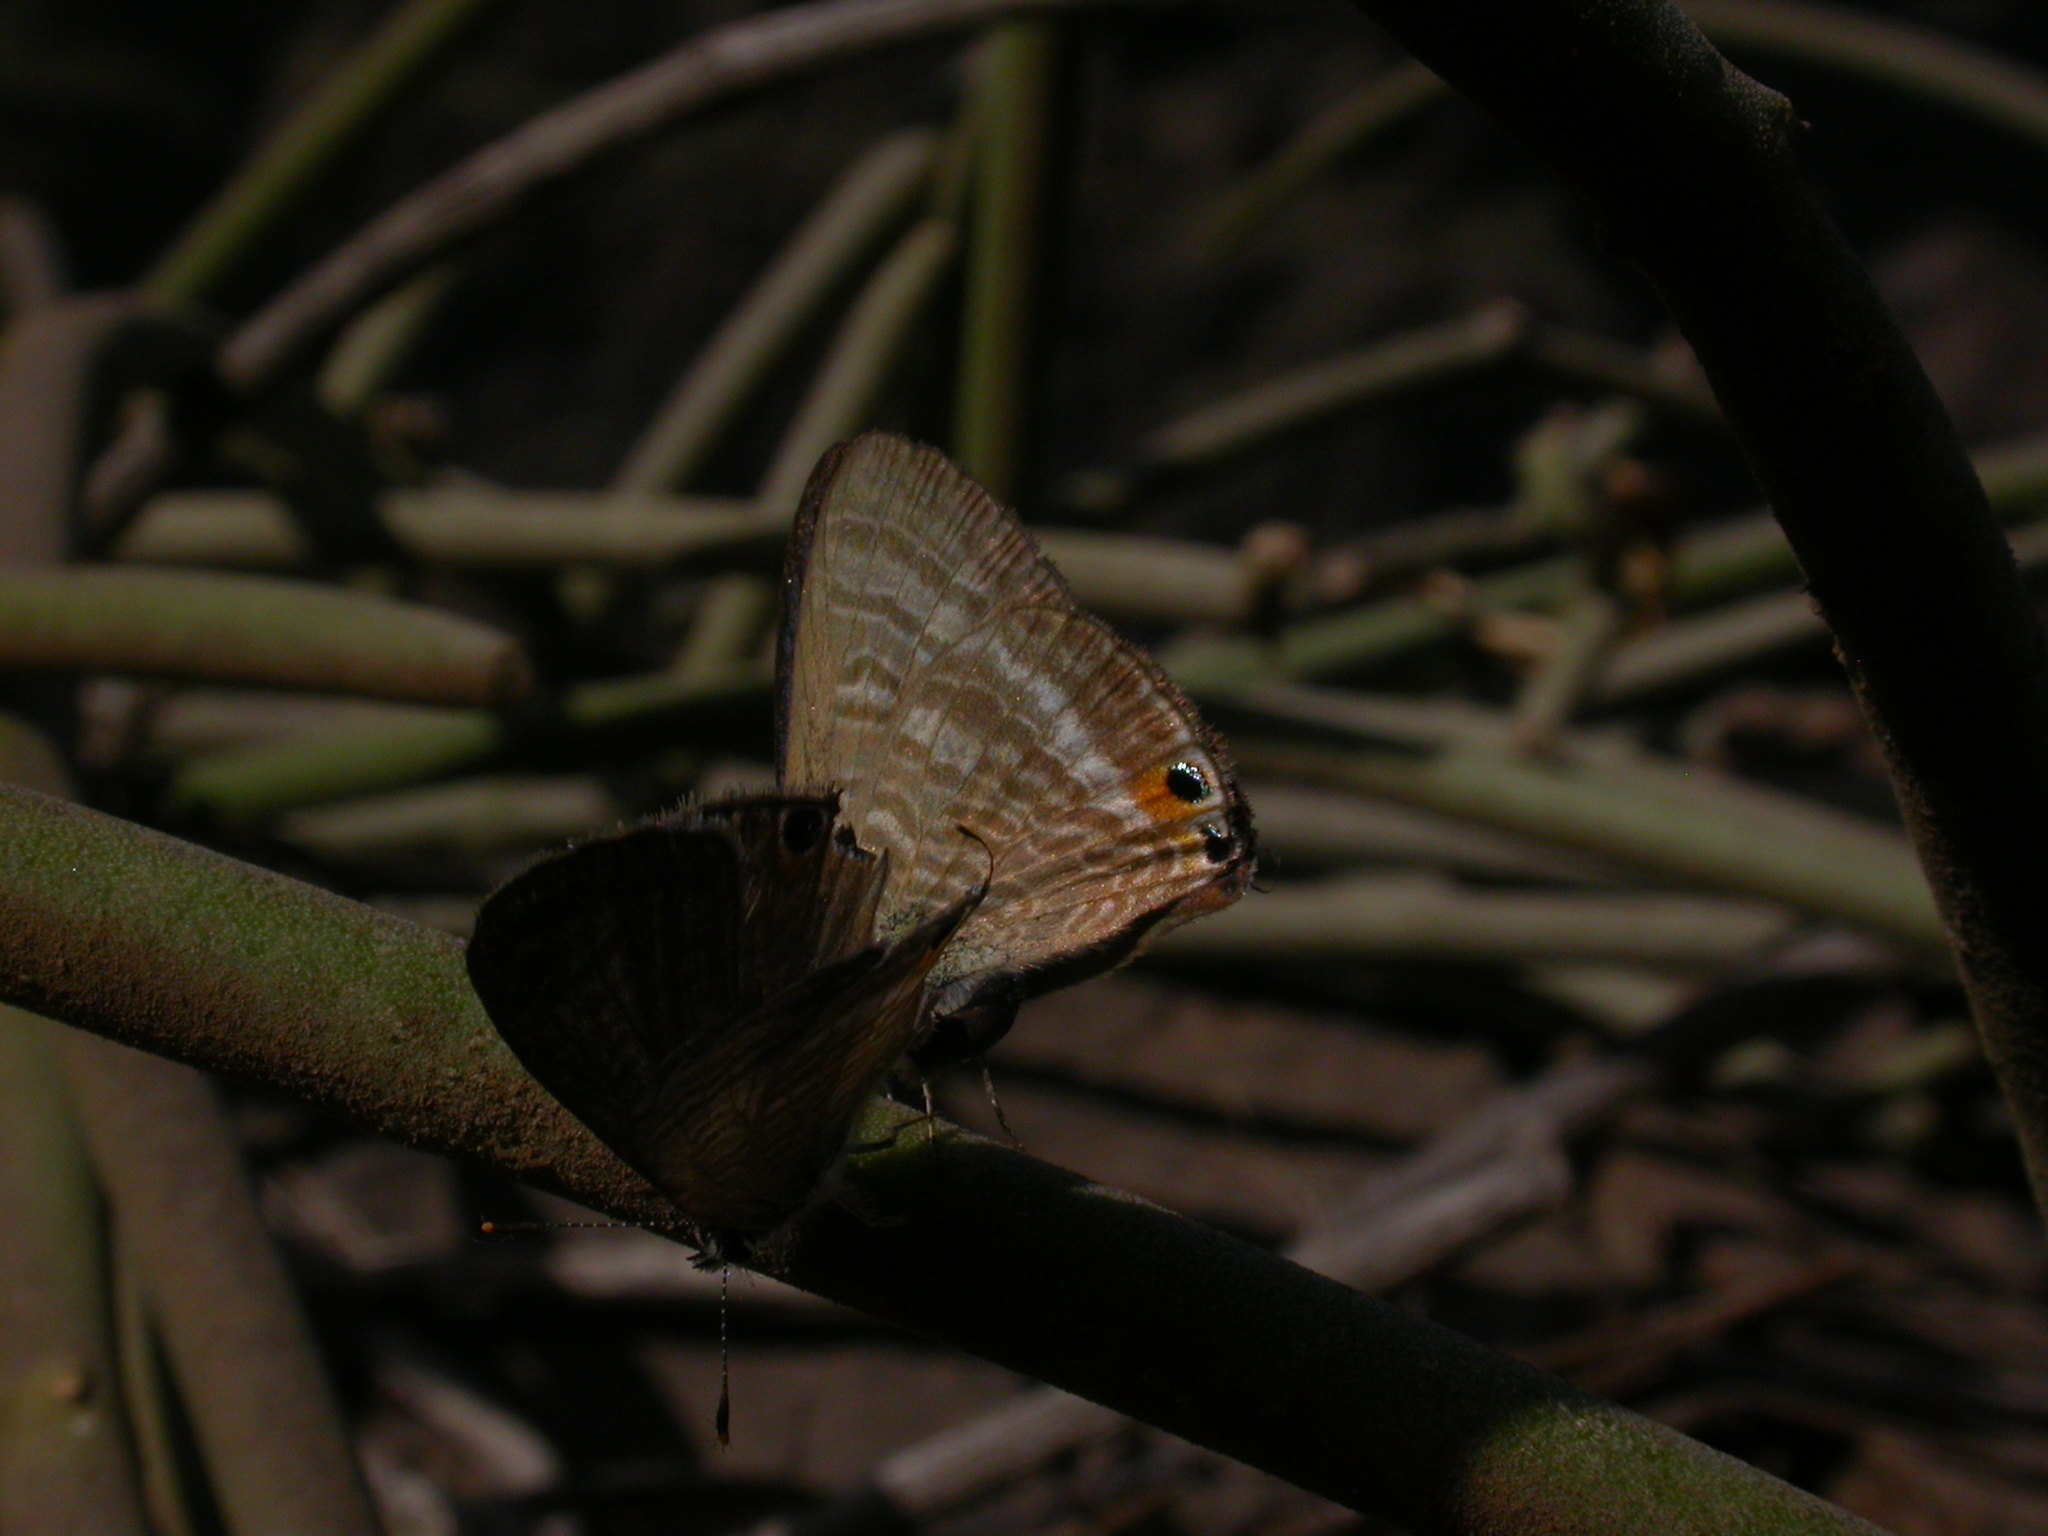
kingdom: Animalia
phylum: Arthropoda
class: Insecta
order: Lepidoptera
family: Lycaenidae
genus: Lampides
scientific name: Lampides boeticus
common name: Long-tailed blue
